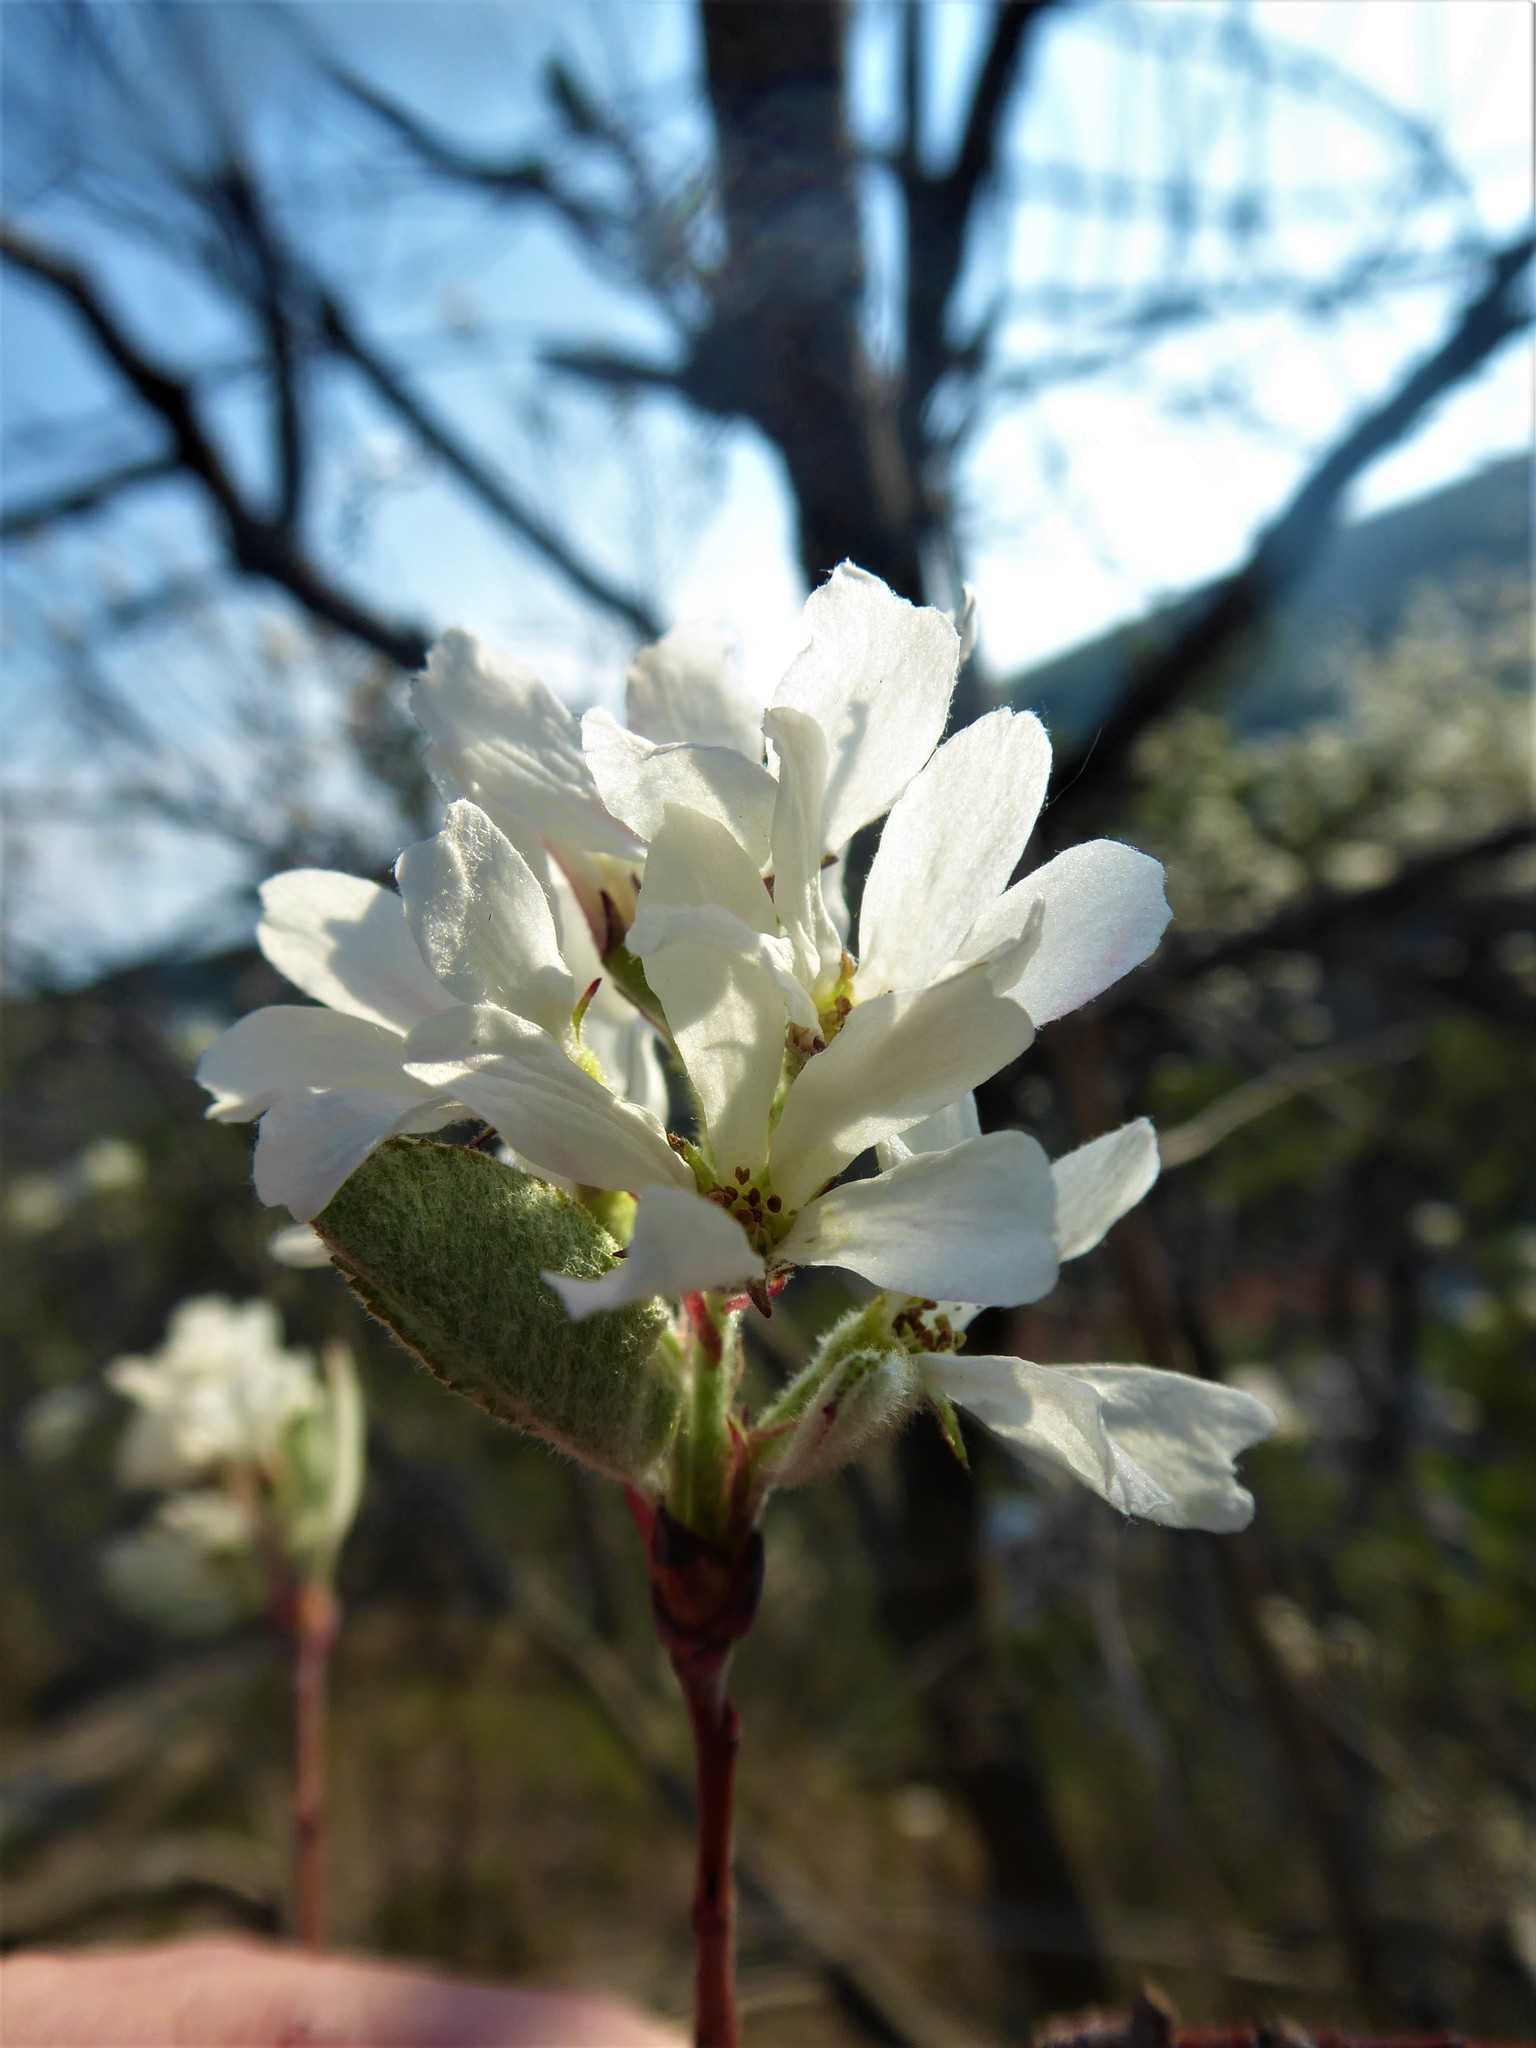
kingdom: Plantae
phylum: Tracheophyta
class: Magnoliopsida
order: Rosales
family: Rosaceae
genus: Amelanchier
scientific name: Amelanchier ovalis
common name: Serviceberry
